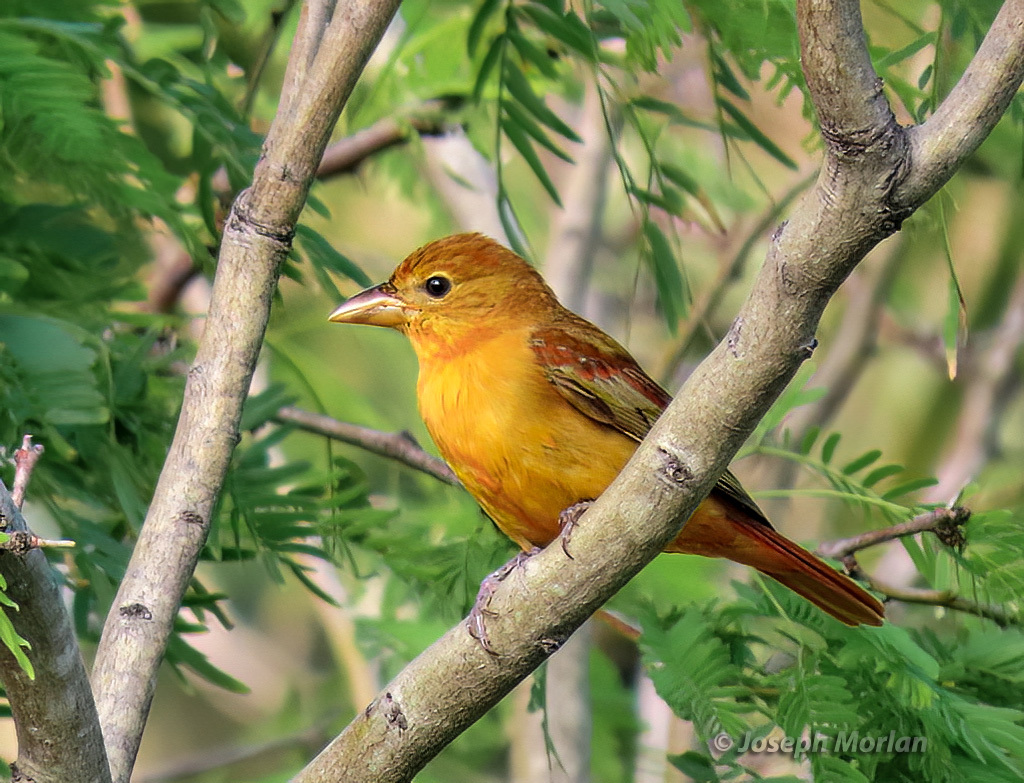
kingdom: Animalia
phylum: Chordata
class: Aves
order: Passeriformes
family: Cardinalidae
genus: Piranga
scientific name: Piranga rubra
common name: Summer tanager
